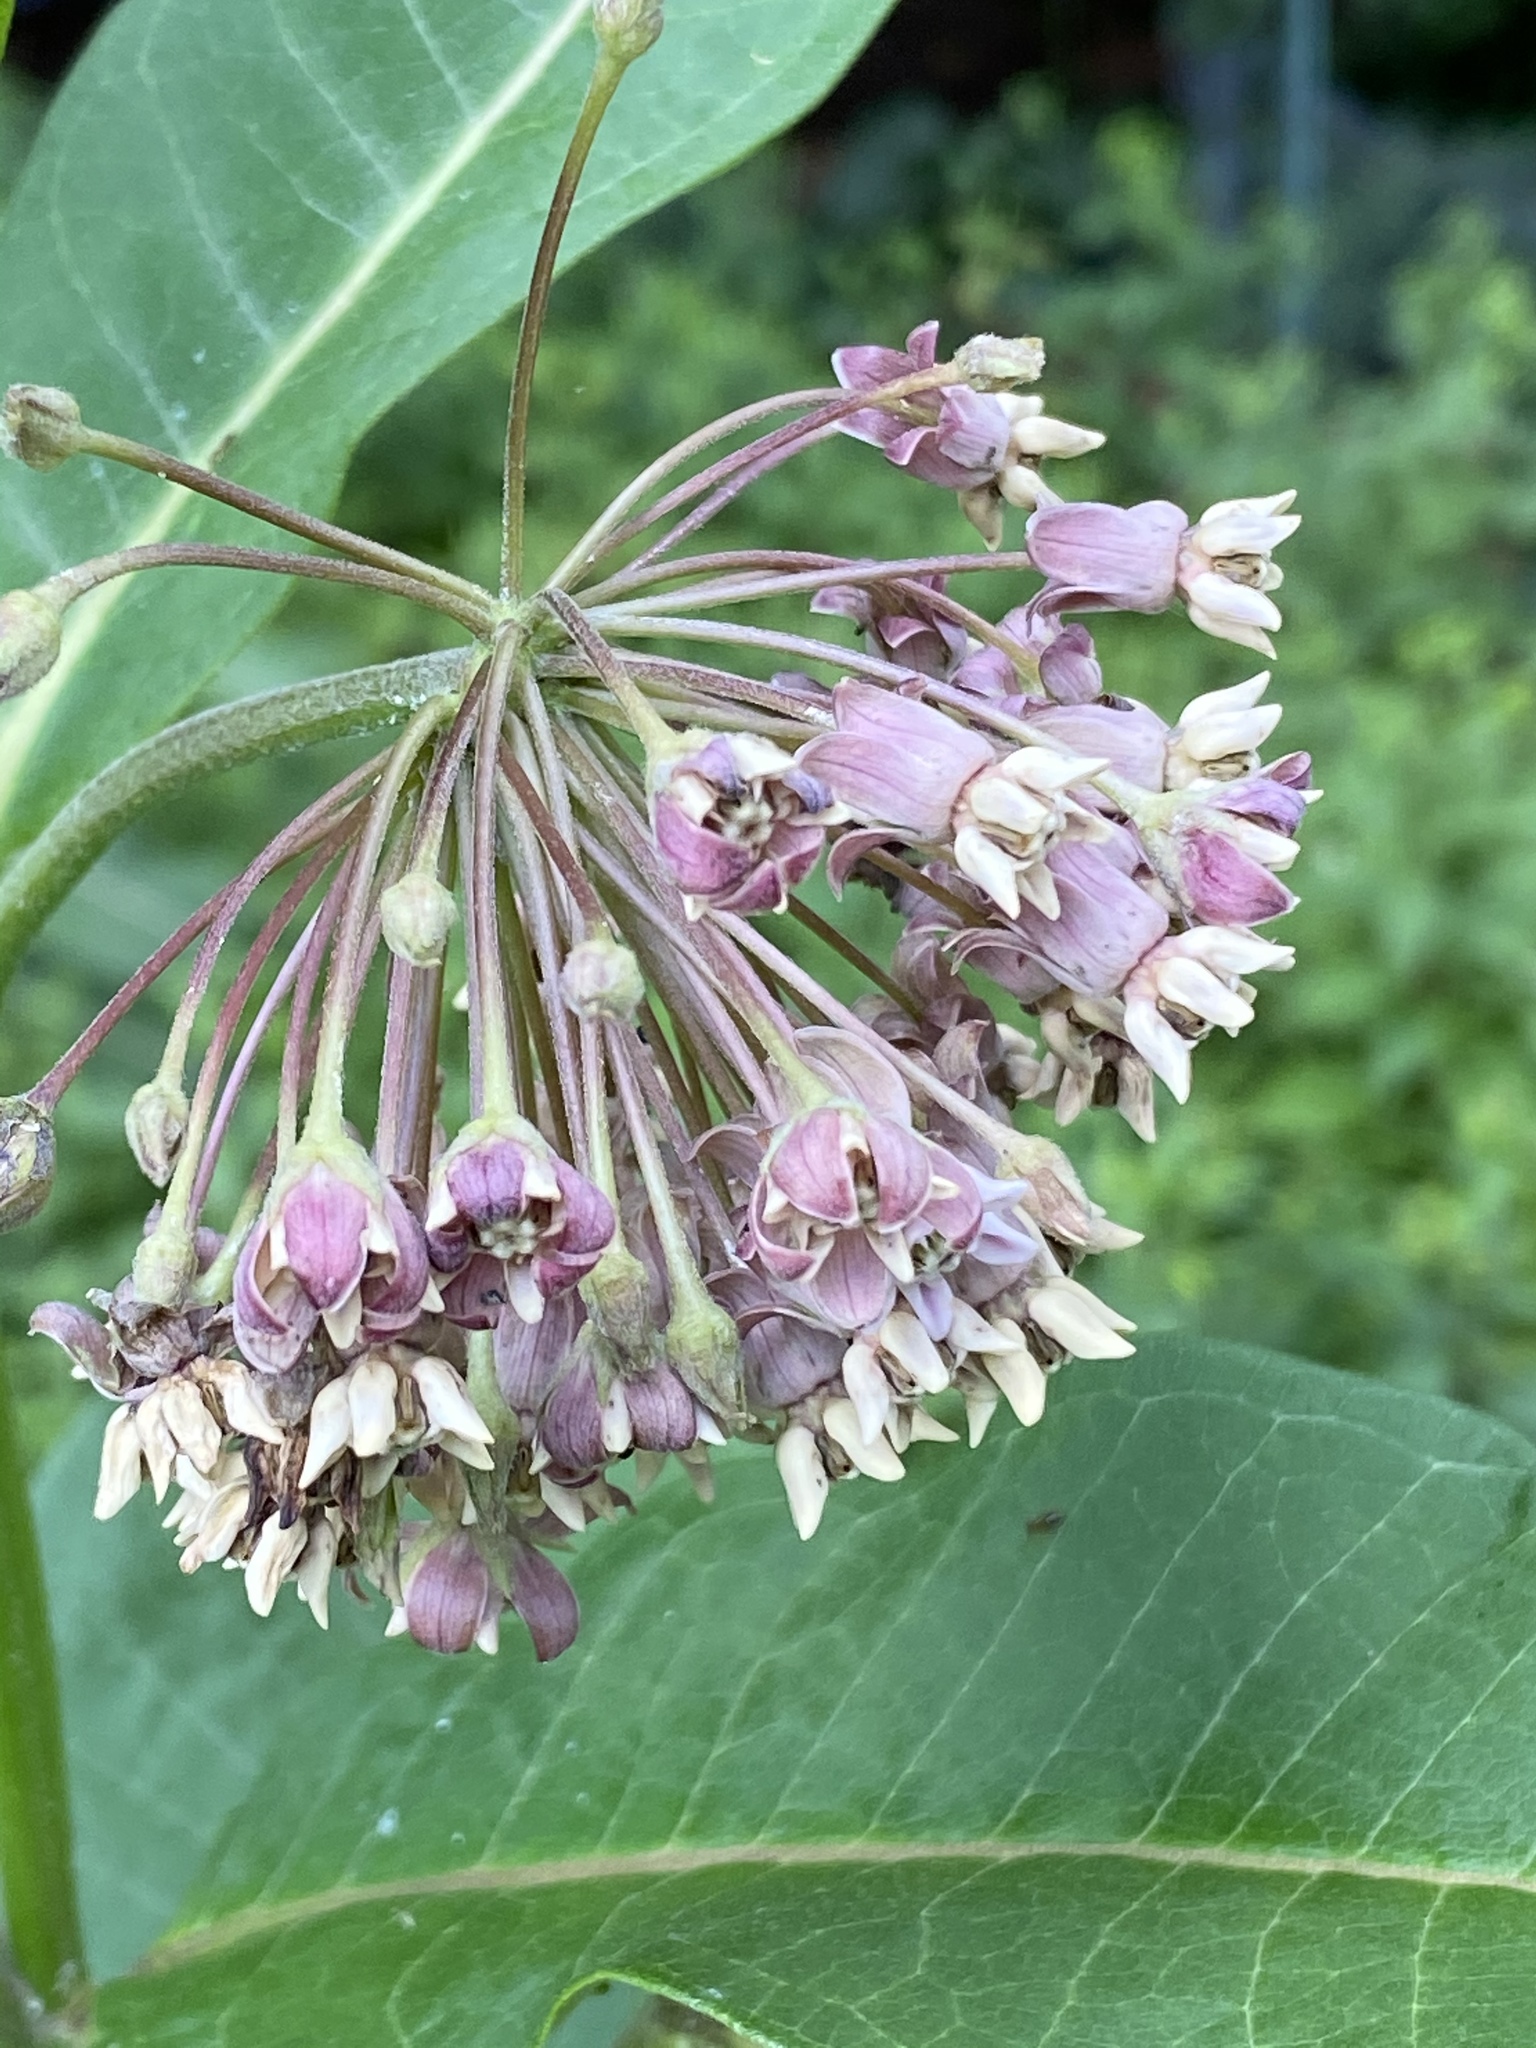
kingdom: Plantae
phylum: Tracheophyta
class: Magnoliopsida
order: Gentianales
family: Apocynaceae
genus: Asclepias
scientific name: Asclepias syriaca
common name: Common milkweed
